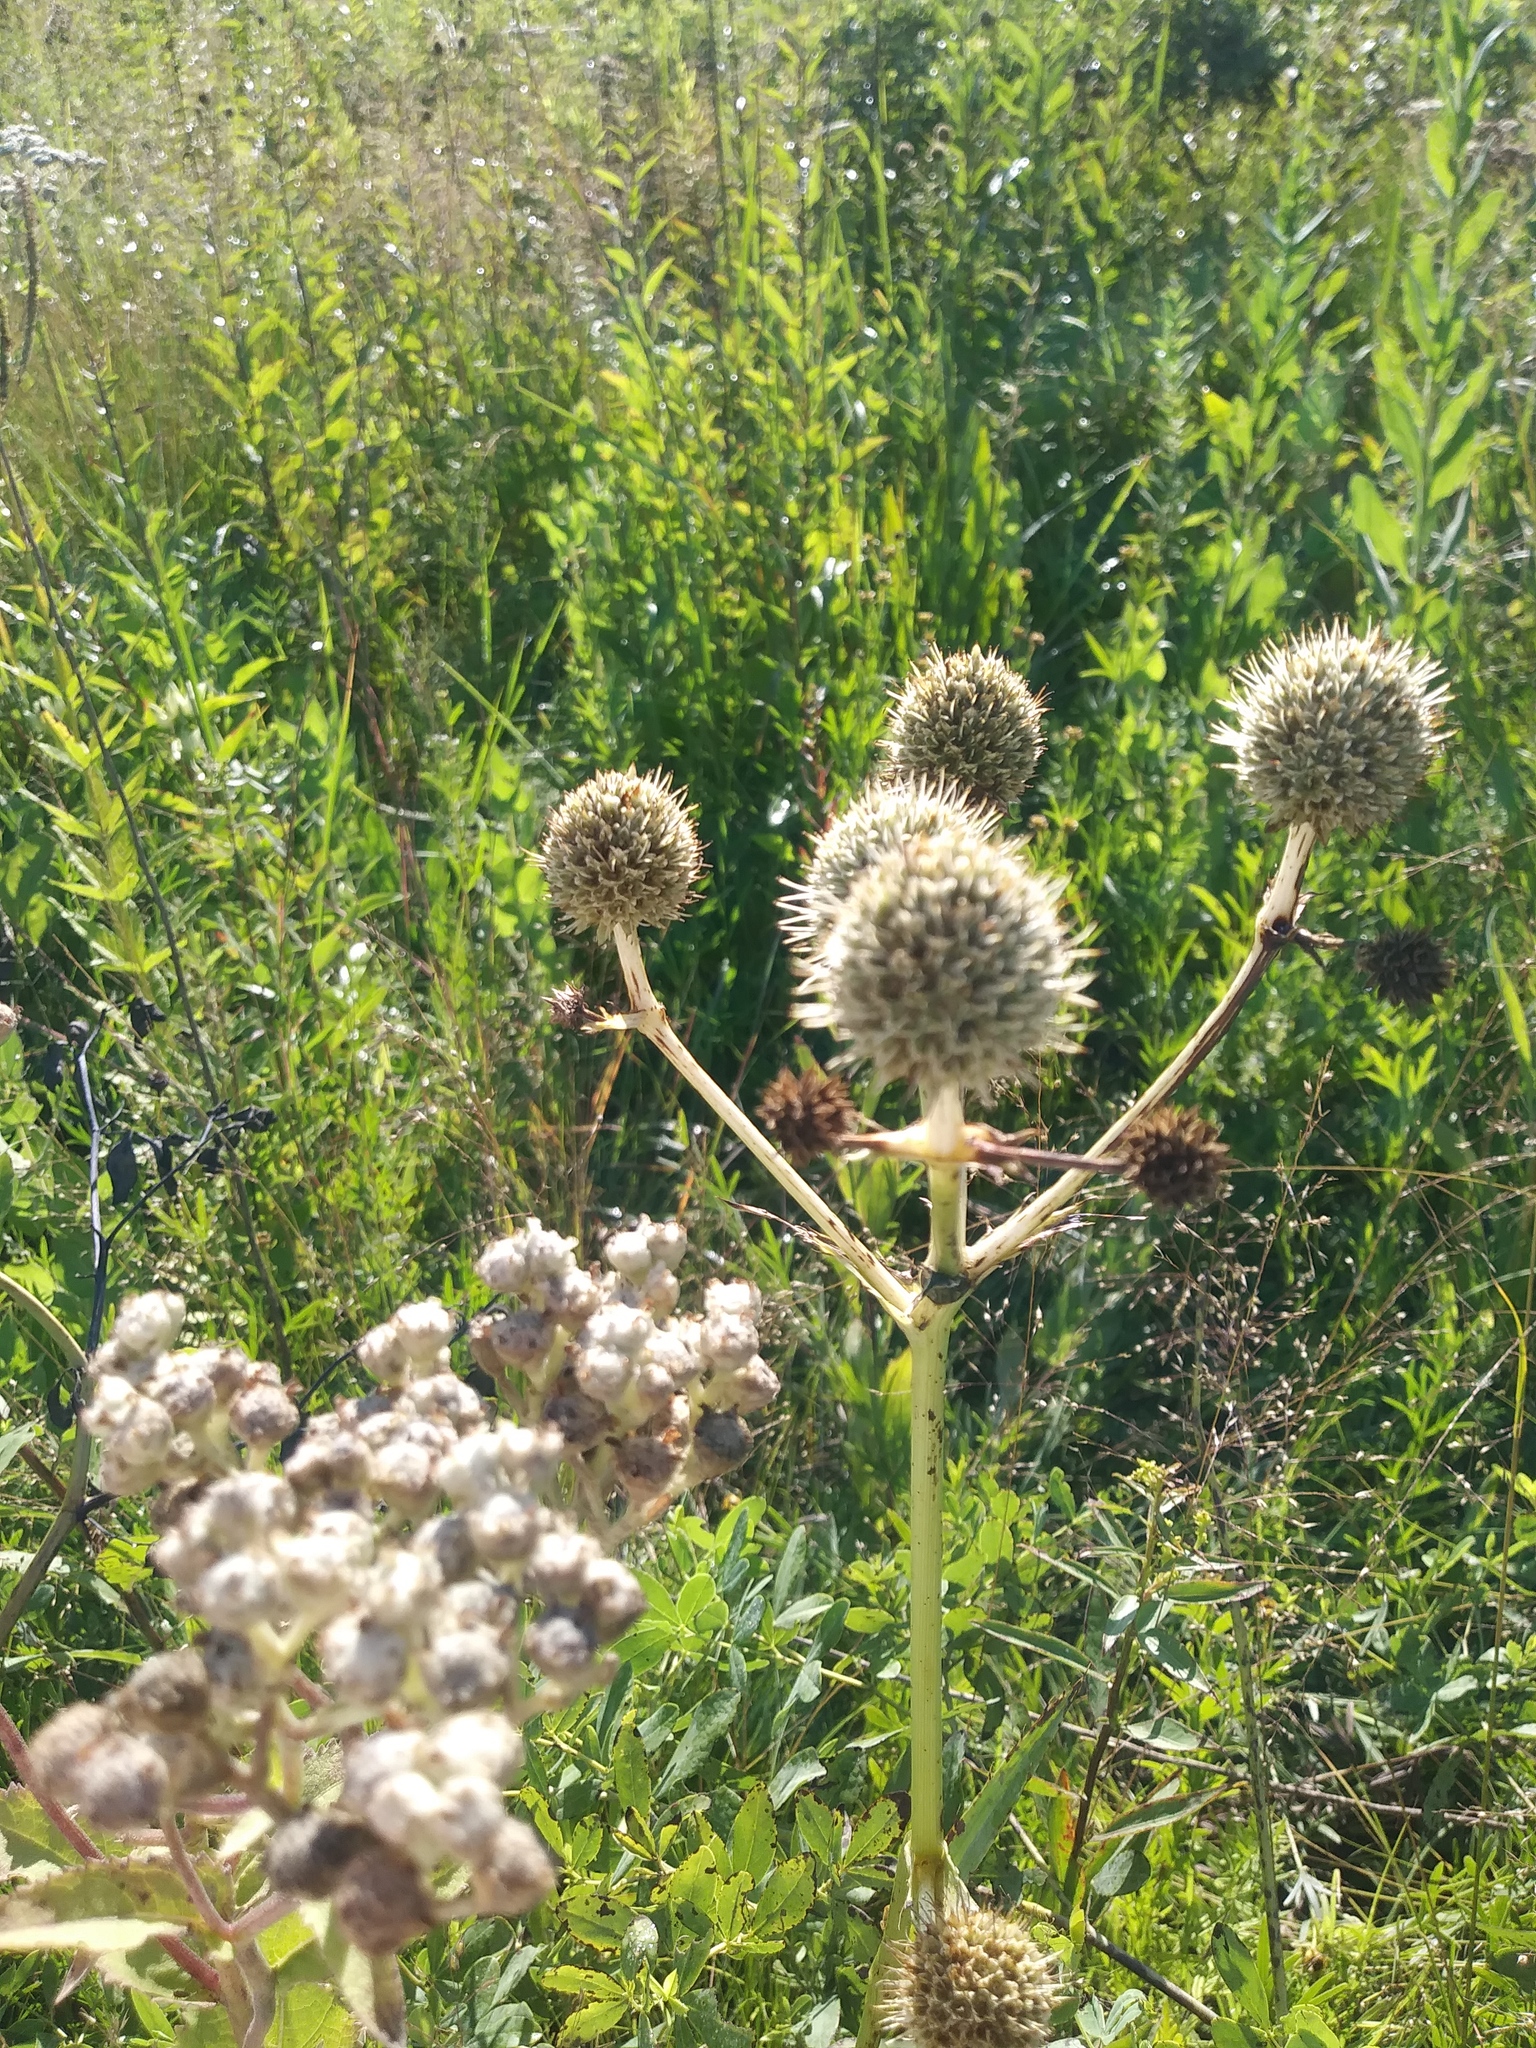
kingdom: Plantae
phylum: Tracheophyta
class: Magnoliopsida
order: Apiales
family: Apiaceae
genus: Eryngium
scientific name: Eryngium yuccifolium
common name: Button eryngo
